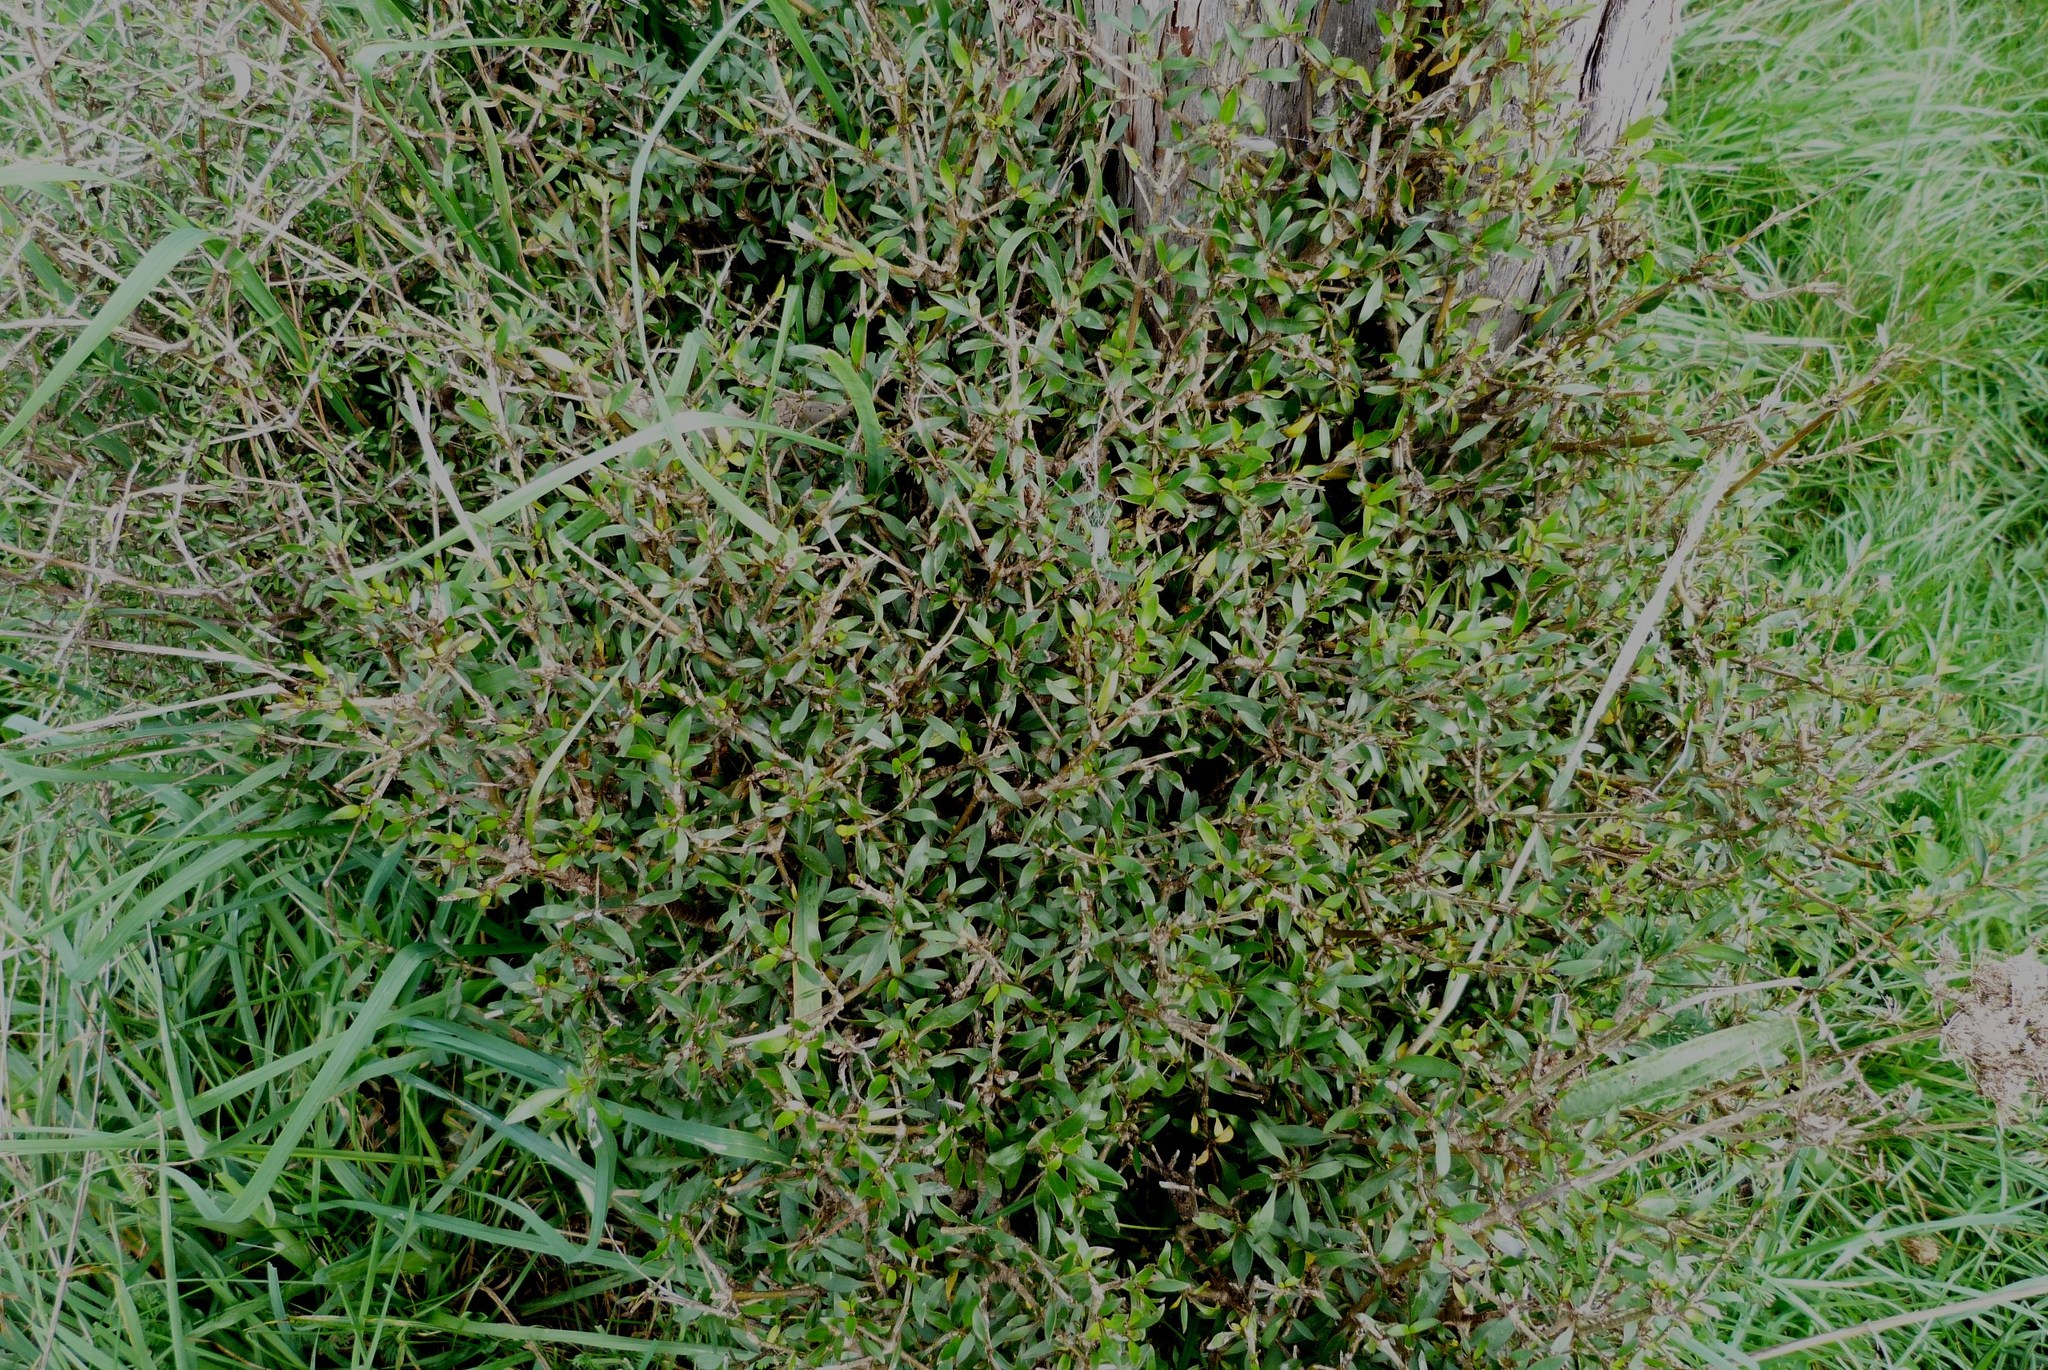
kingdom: Plantae
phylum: Tracheophyta
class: Magnoliopsida
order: Gentianales
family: Rubiaceae
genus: Coprosma
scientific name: Coprosma propinqua
